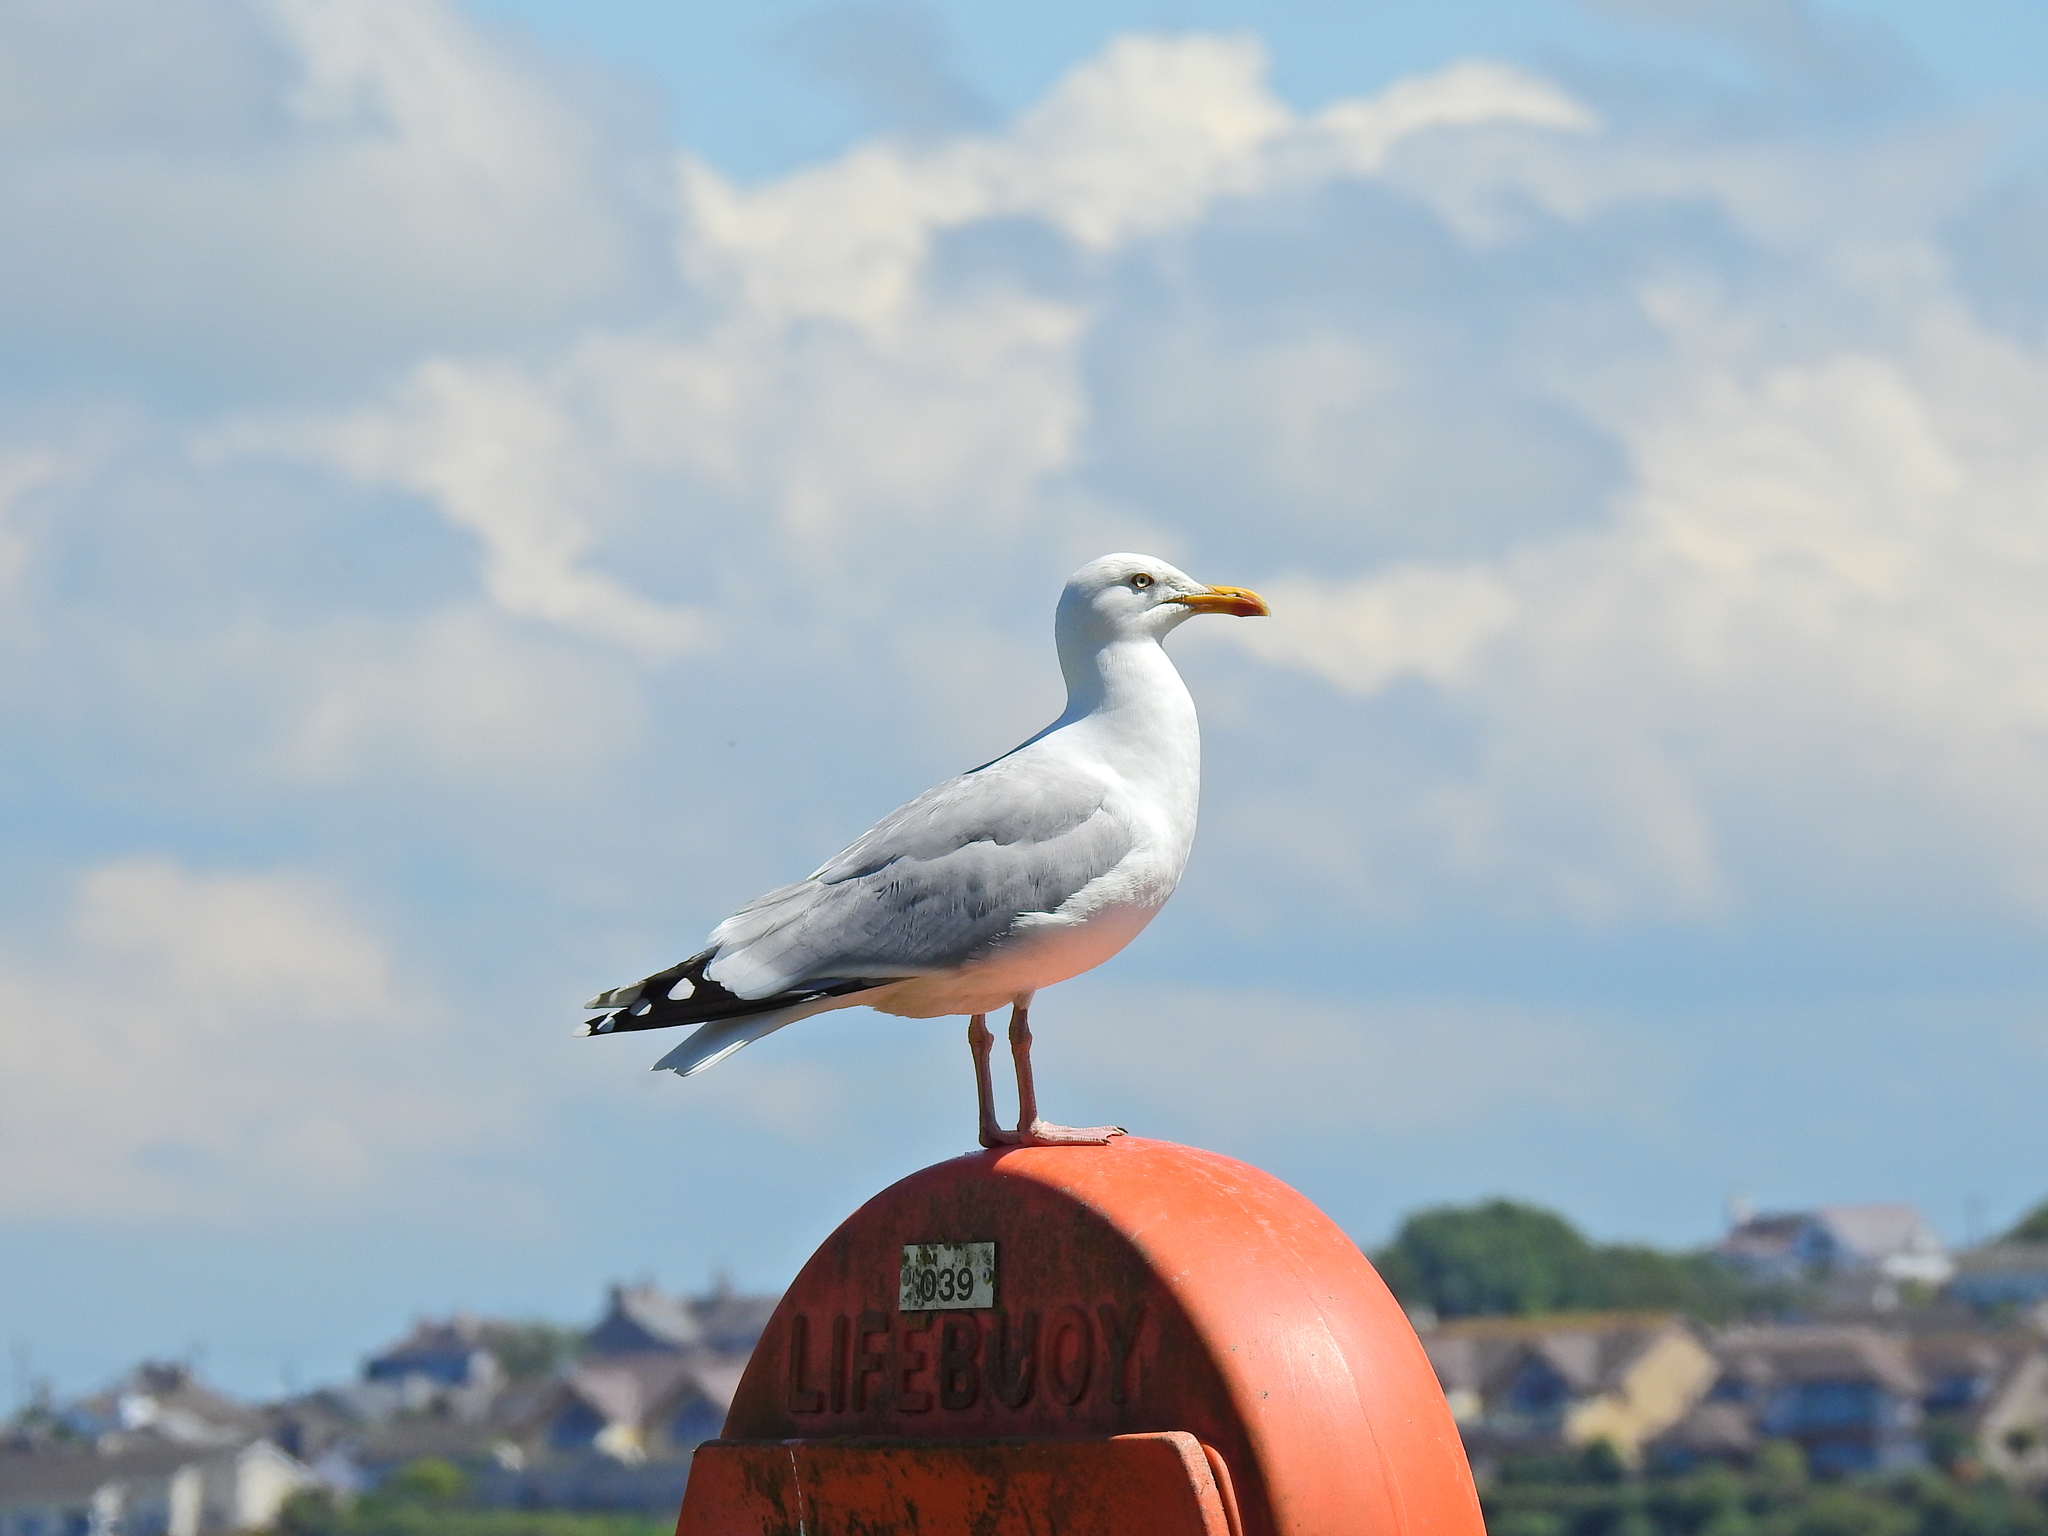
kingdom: Animalia
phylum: Chordata
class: Aves
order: Charadriiformes
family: Laridae
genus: Larus
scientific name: Larus argentatus
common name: Herring gull
